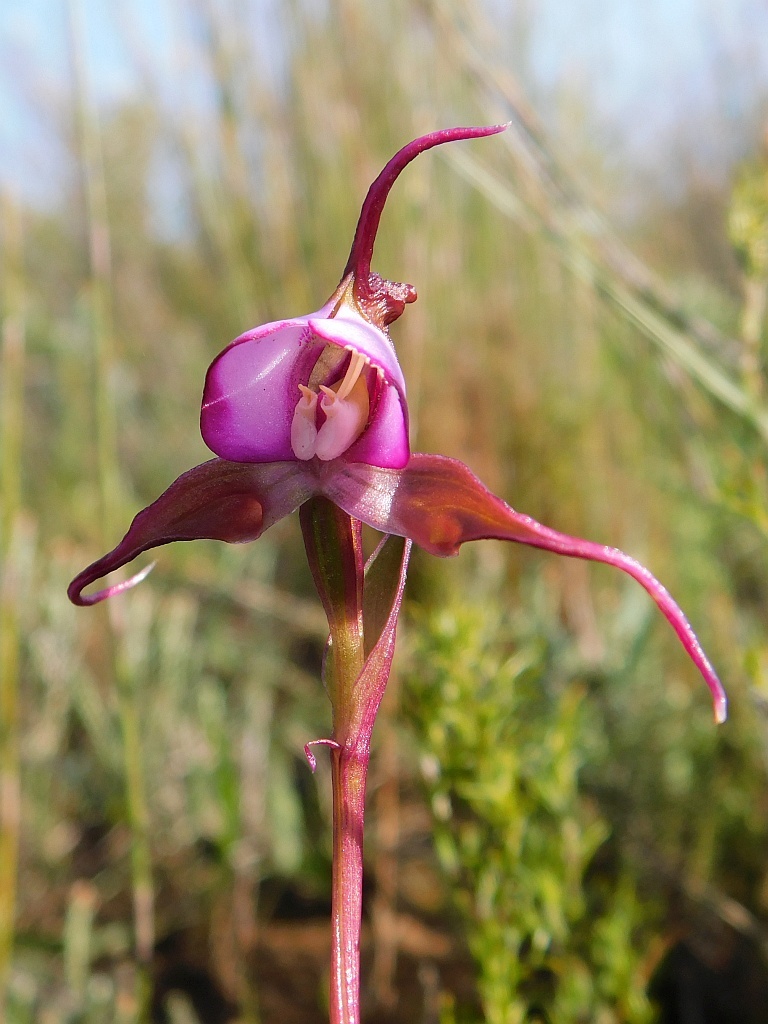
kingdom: Plantae
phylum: Tracheophyta
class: Liliopsida
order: Asparagales
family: Orchidaceae
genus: Disperis
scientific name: Disperis capensis
